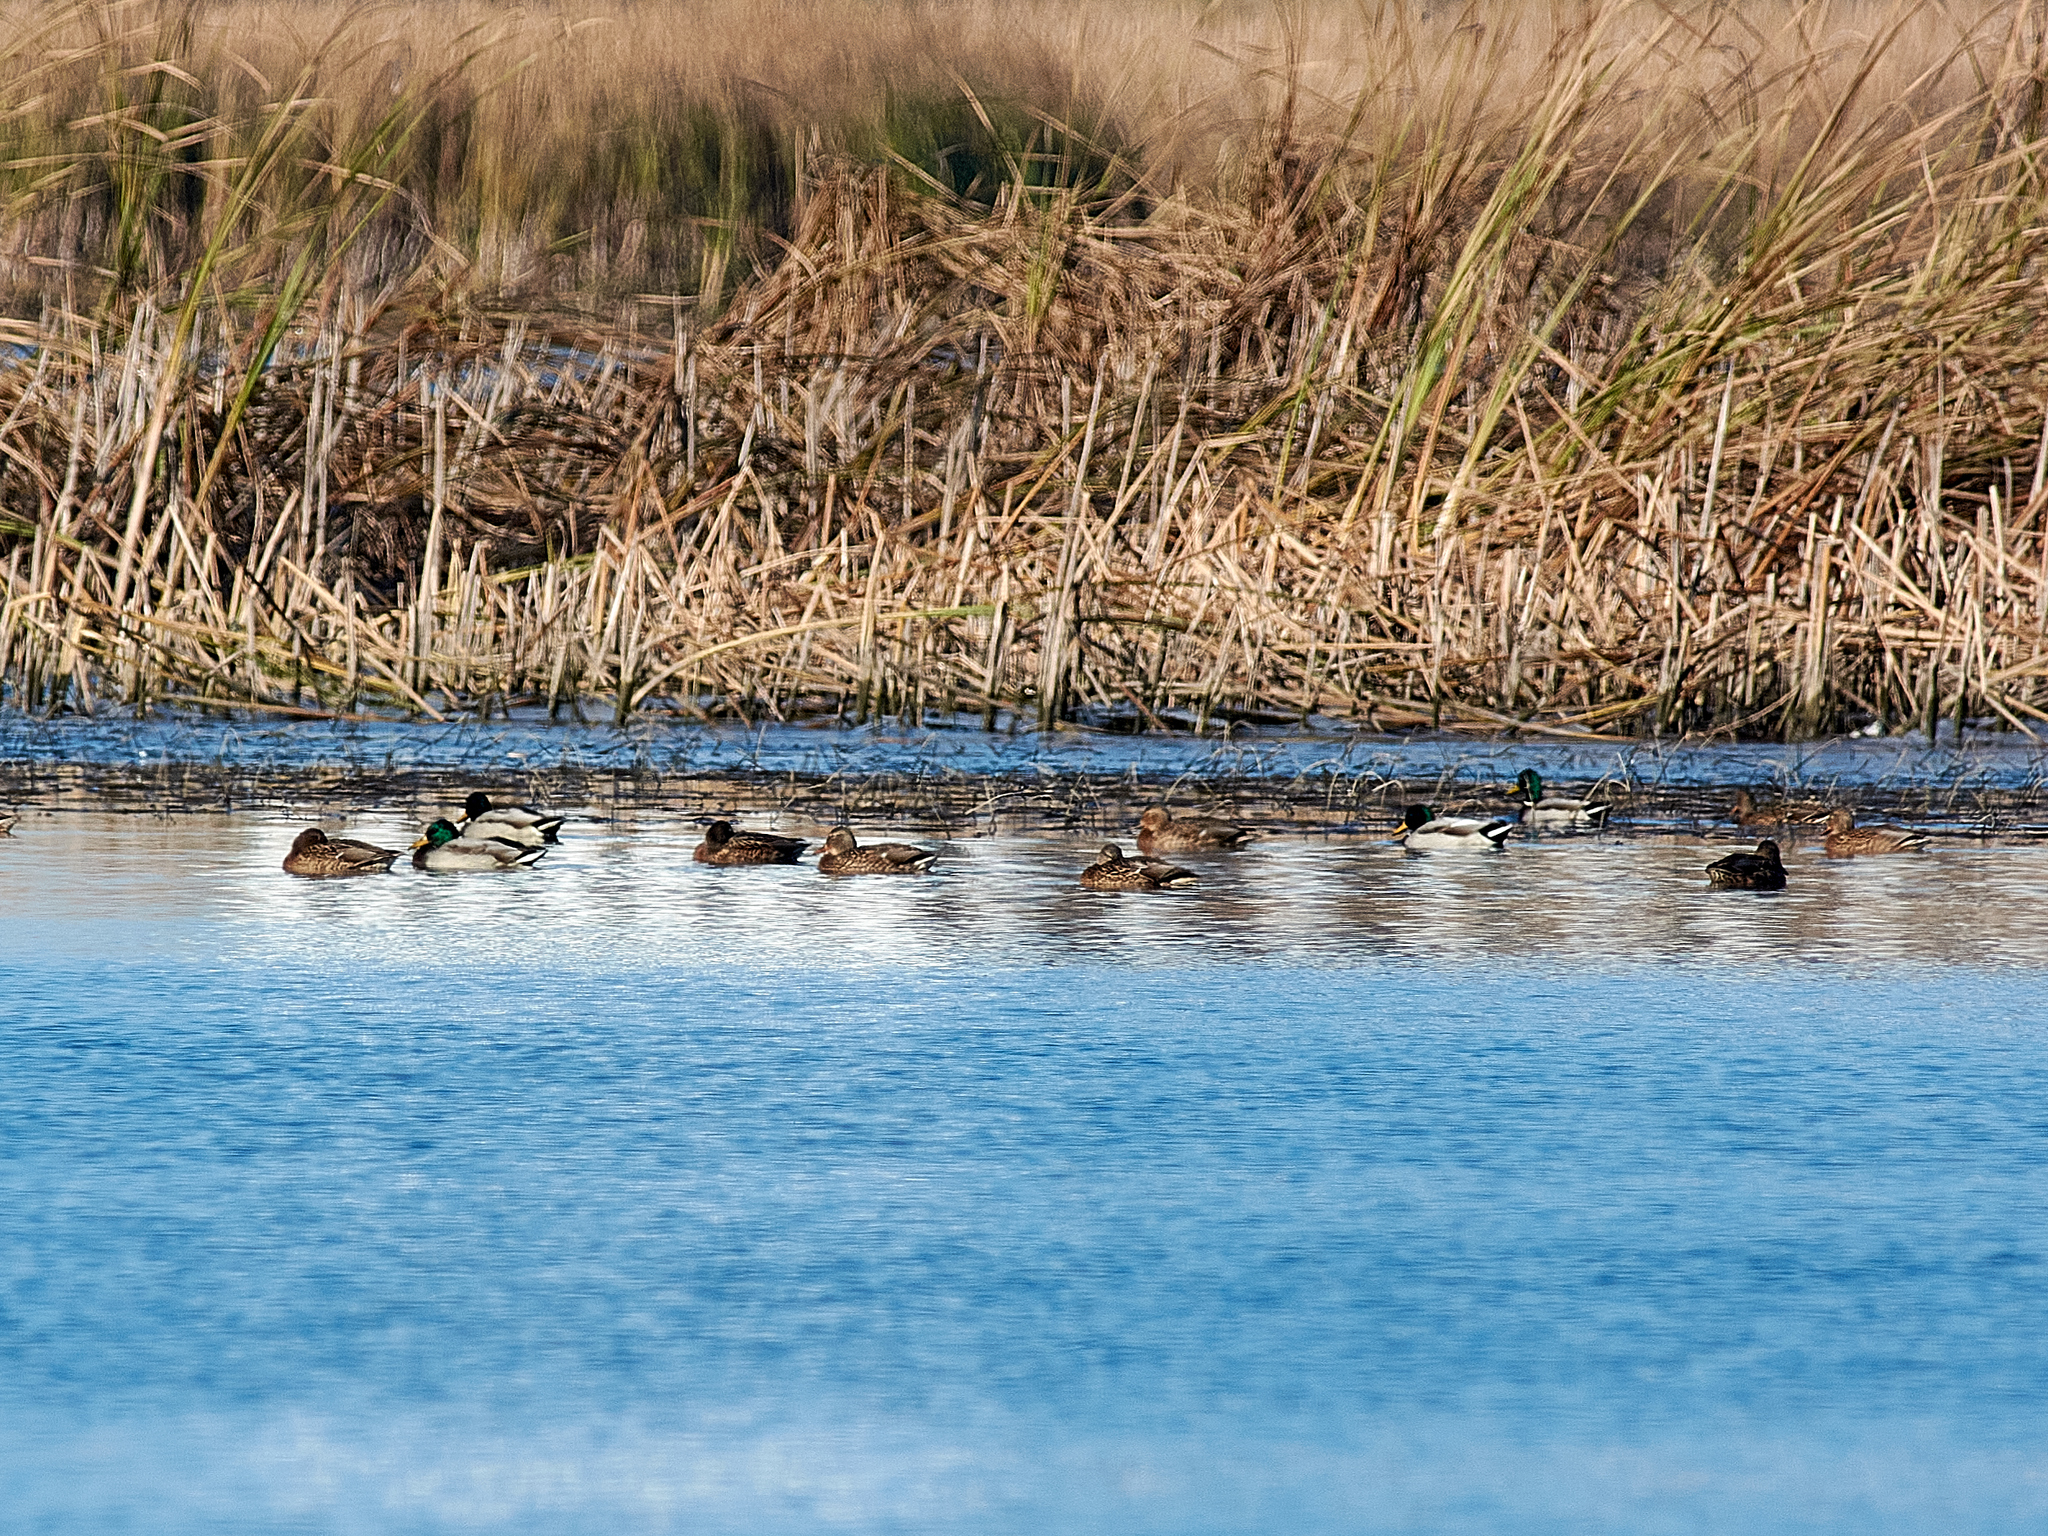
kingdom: Animalia
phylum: Chordata
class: Aves
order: Anseriformes
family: Anatidae
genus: Anas
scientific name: Anas platyrhynchos
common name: Mallard
